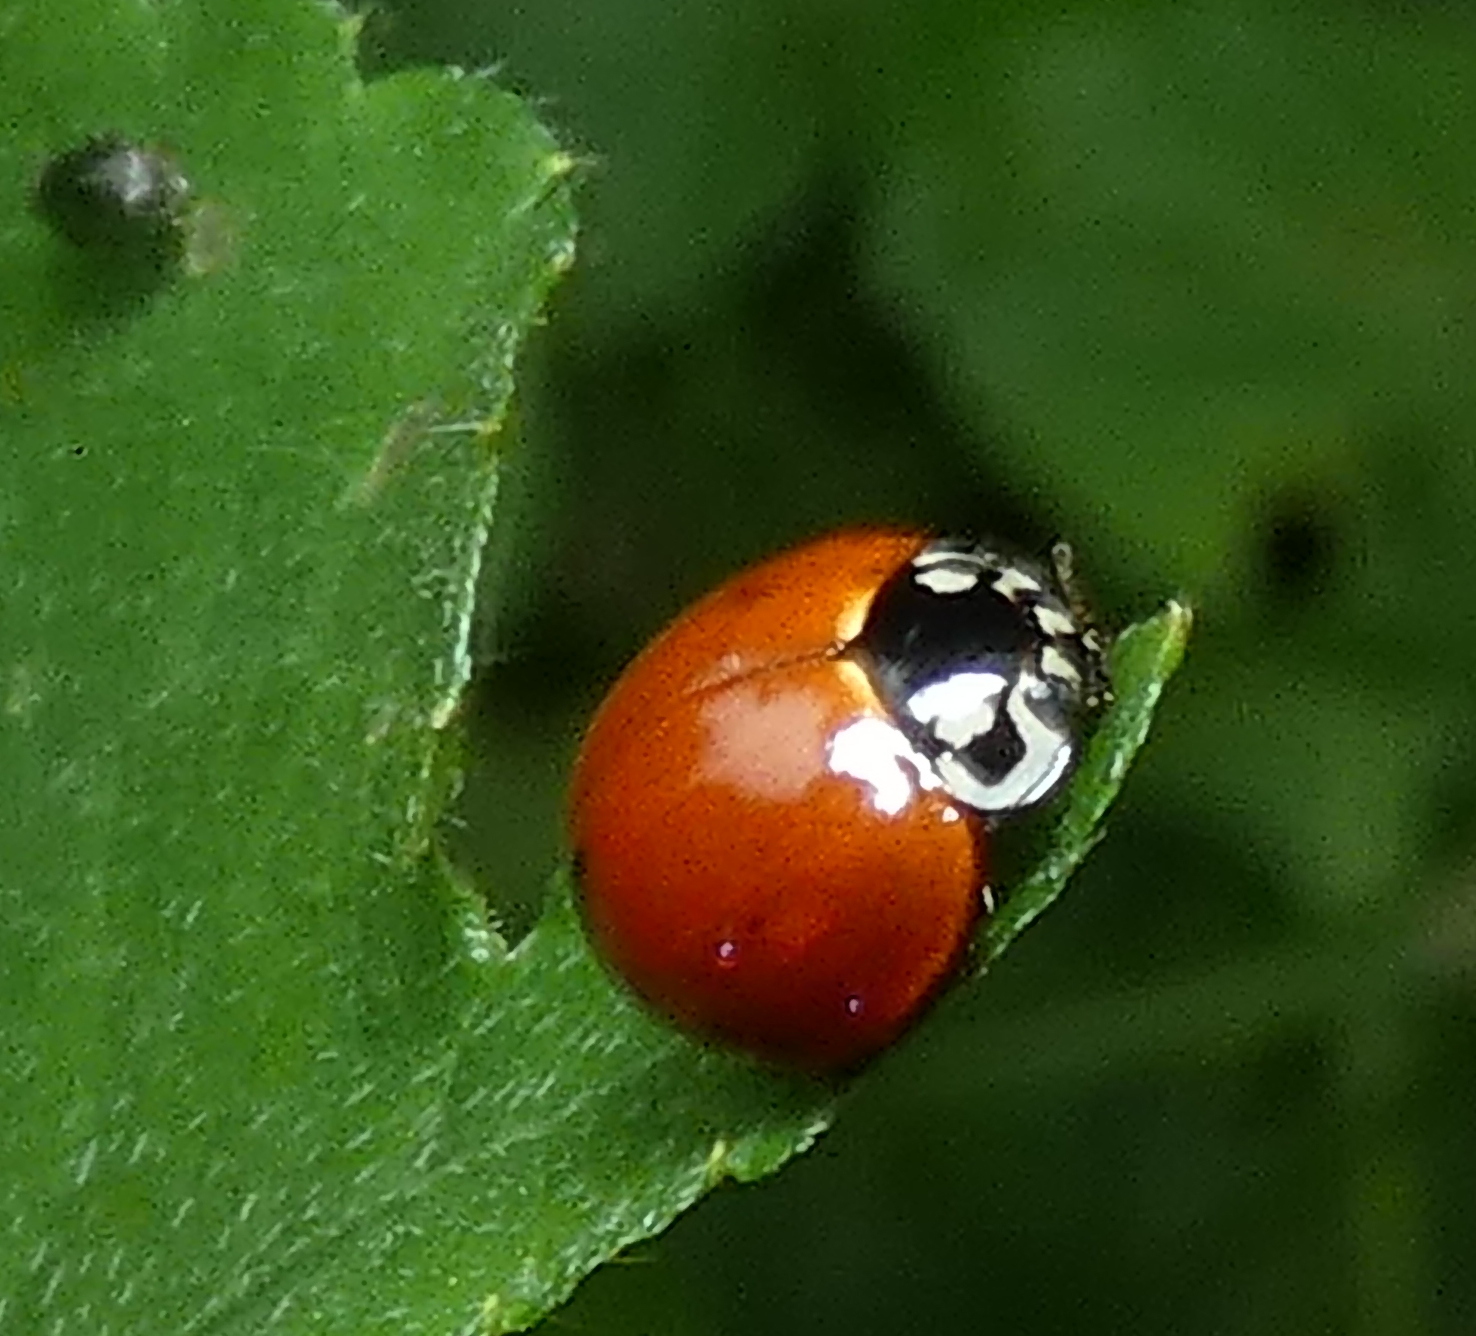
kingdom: Animalia
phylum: Arthropoda
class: Insecta
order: Coleoptera
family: Coccinellidae
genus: Cycloneda
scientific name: Cycloneda sanguinea
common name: Ladybird beetle
